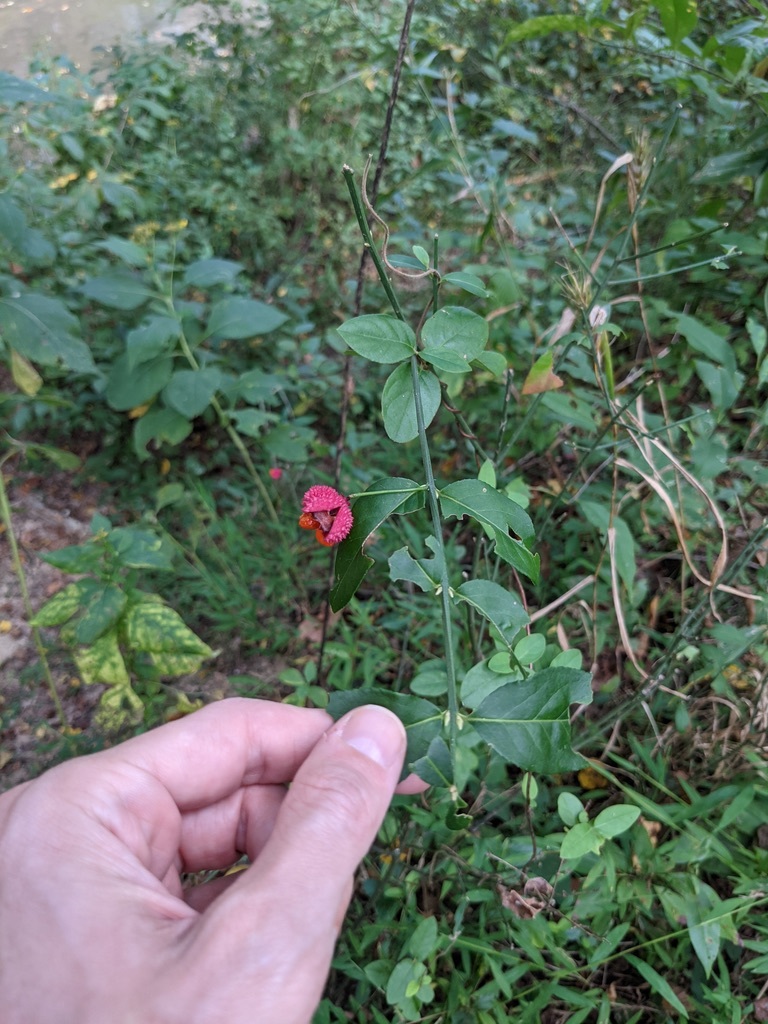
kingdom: Plantae
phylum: Tracheophyta
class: Magnoliopsida
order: Celastrales
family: Celastraceae
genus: Euonymus
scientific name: Euonymus americanus
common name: Bursting-heart
